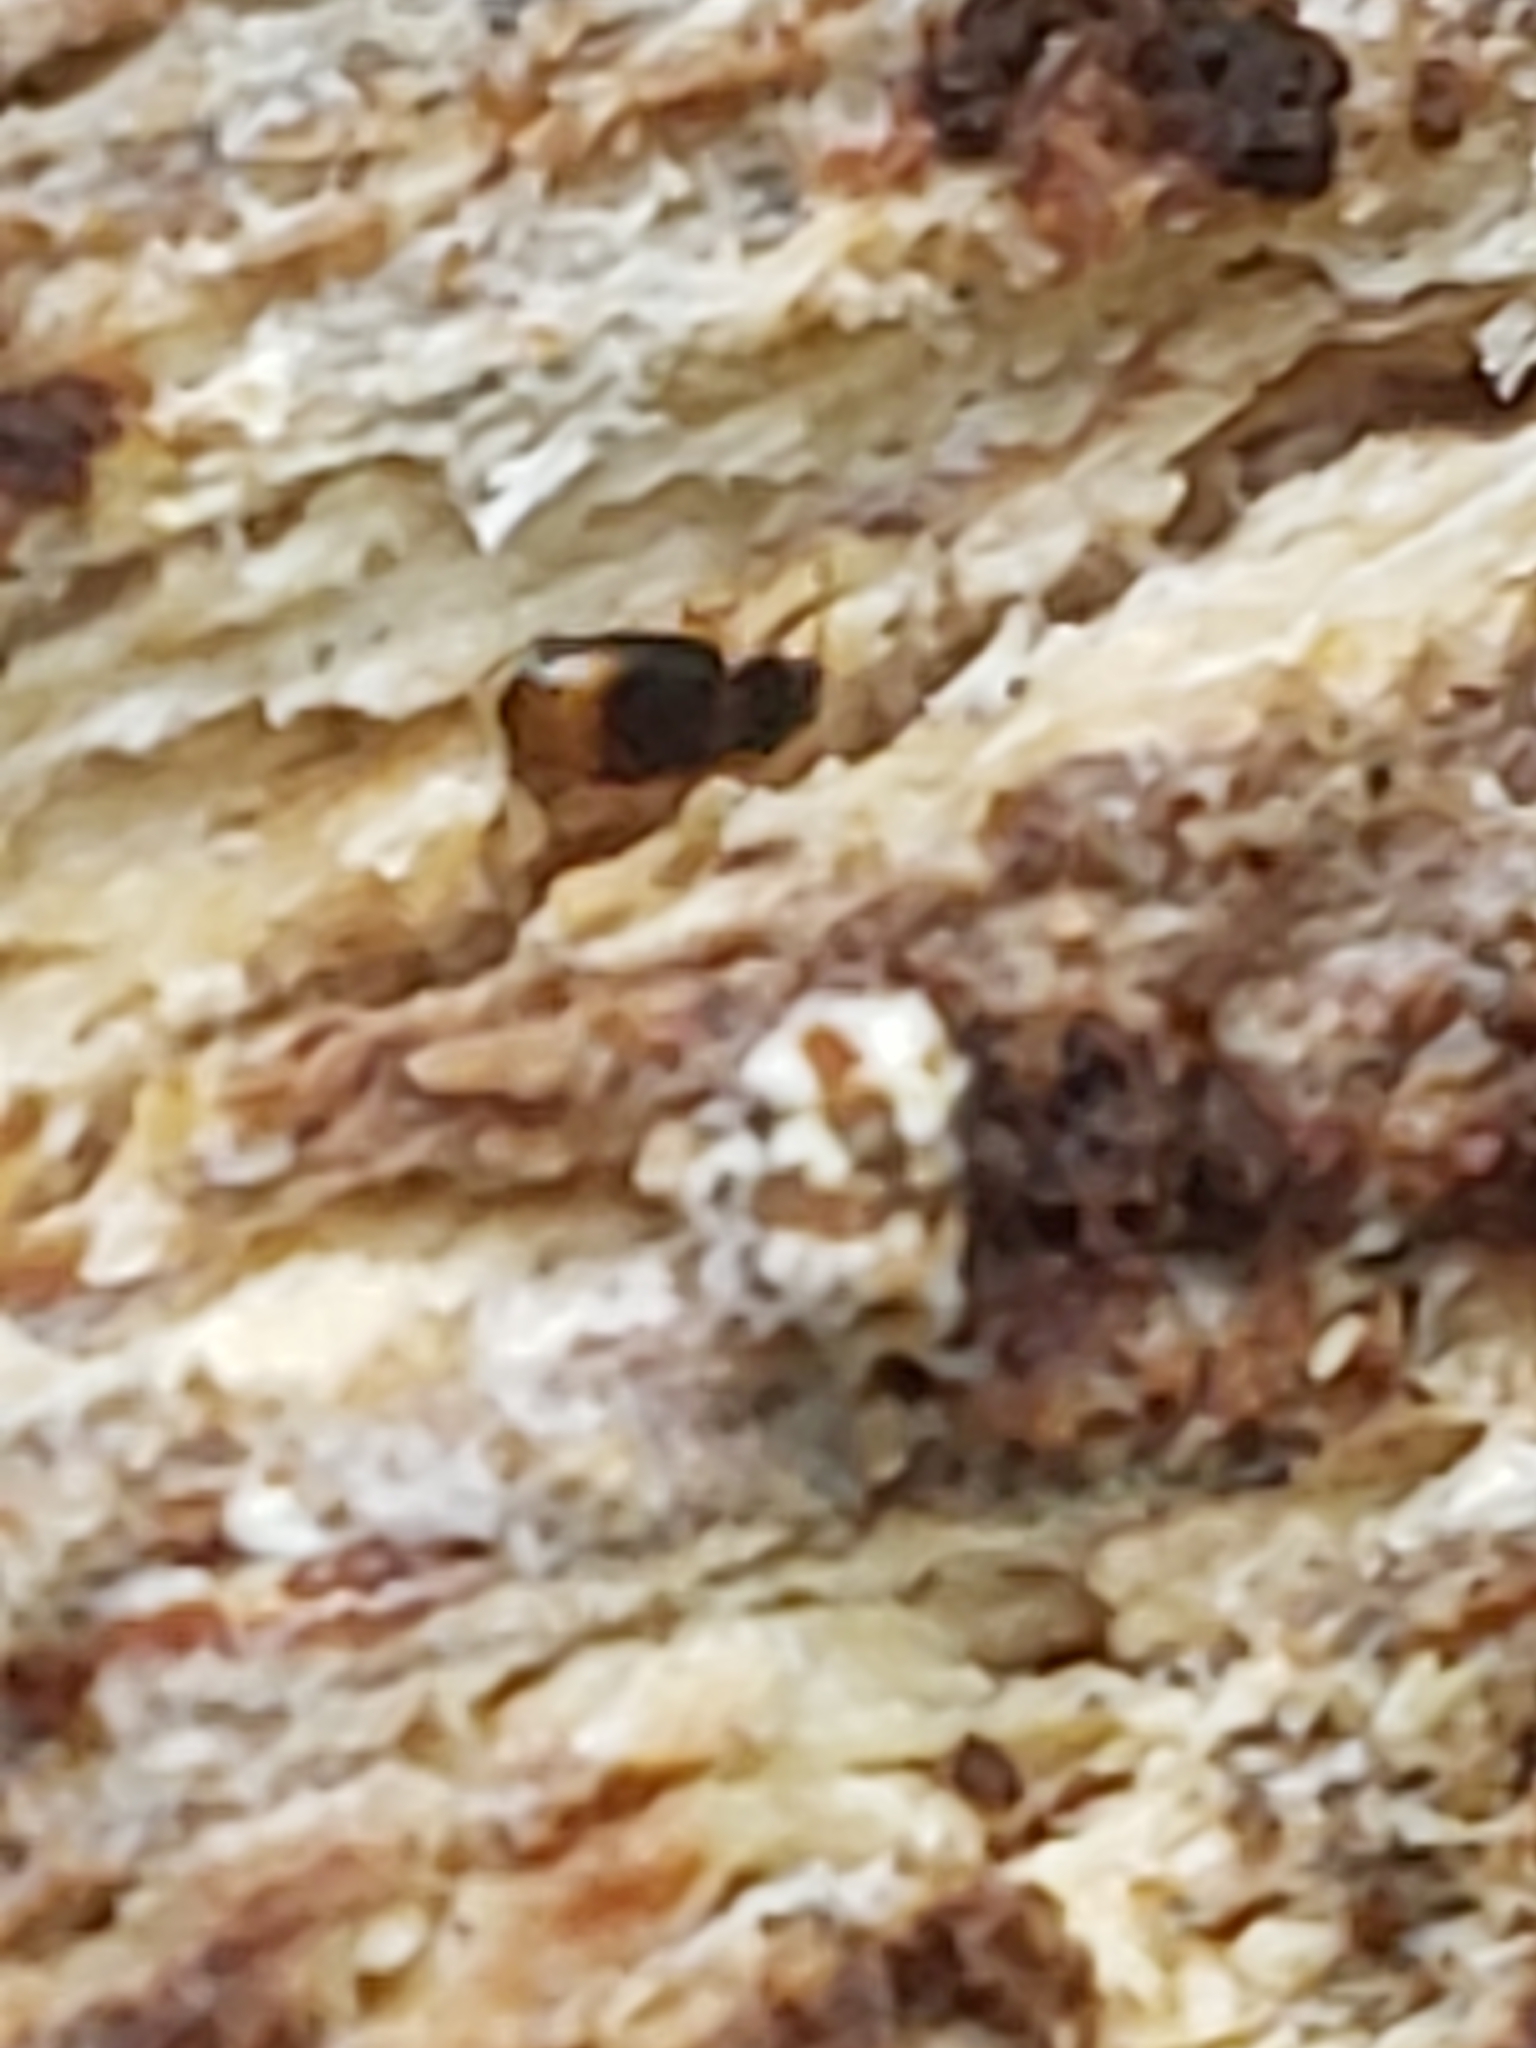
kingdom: Animalia
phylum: Arthropoda
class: Insecta
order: Coleoptera
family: Carabidae
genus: Mioptachys
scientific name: Mioptachys flavicauda
